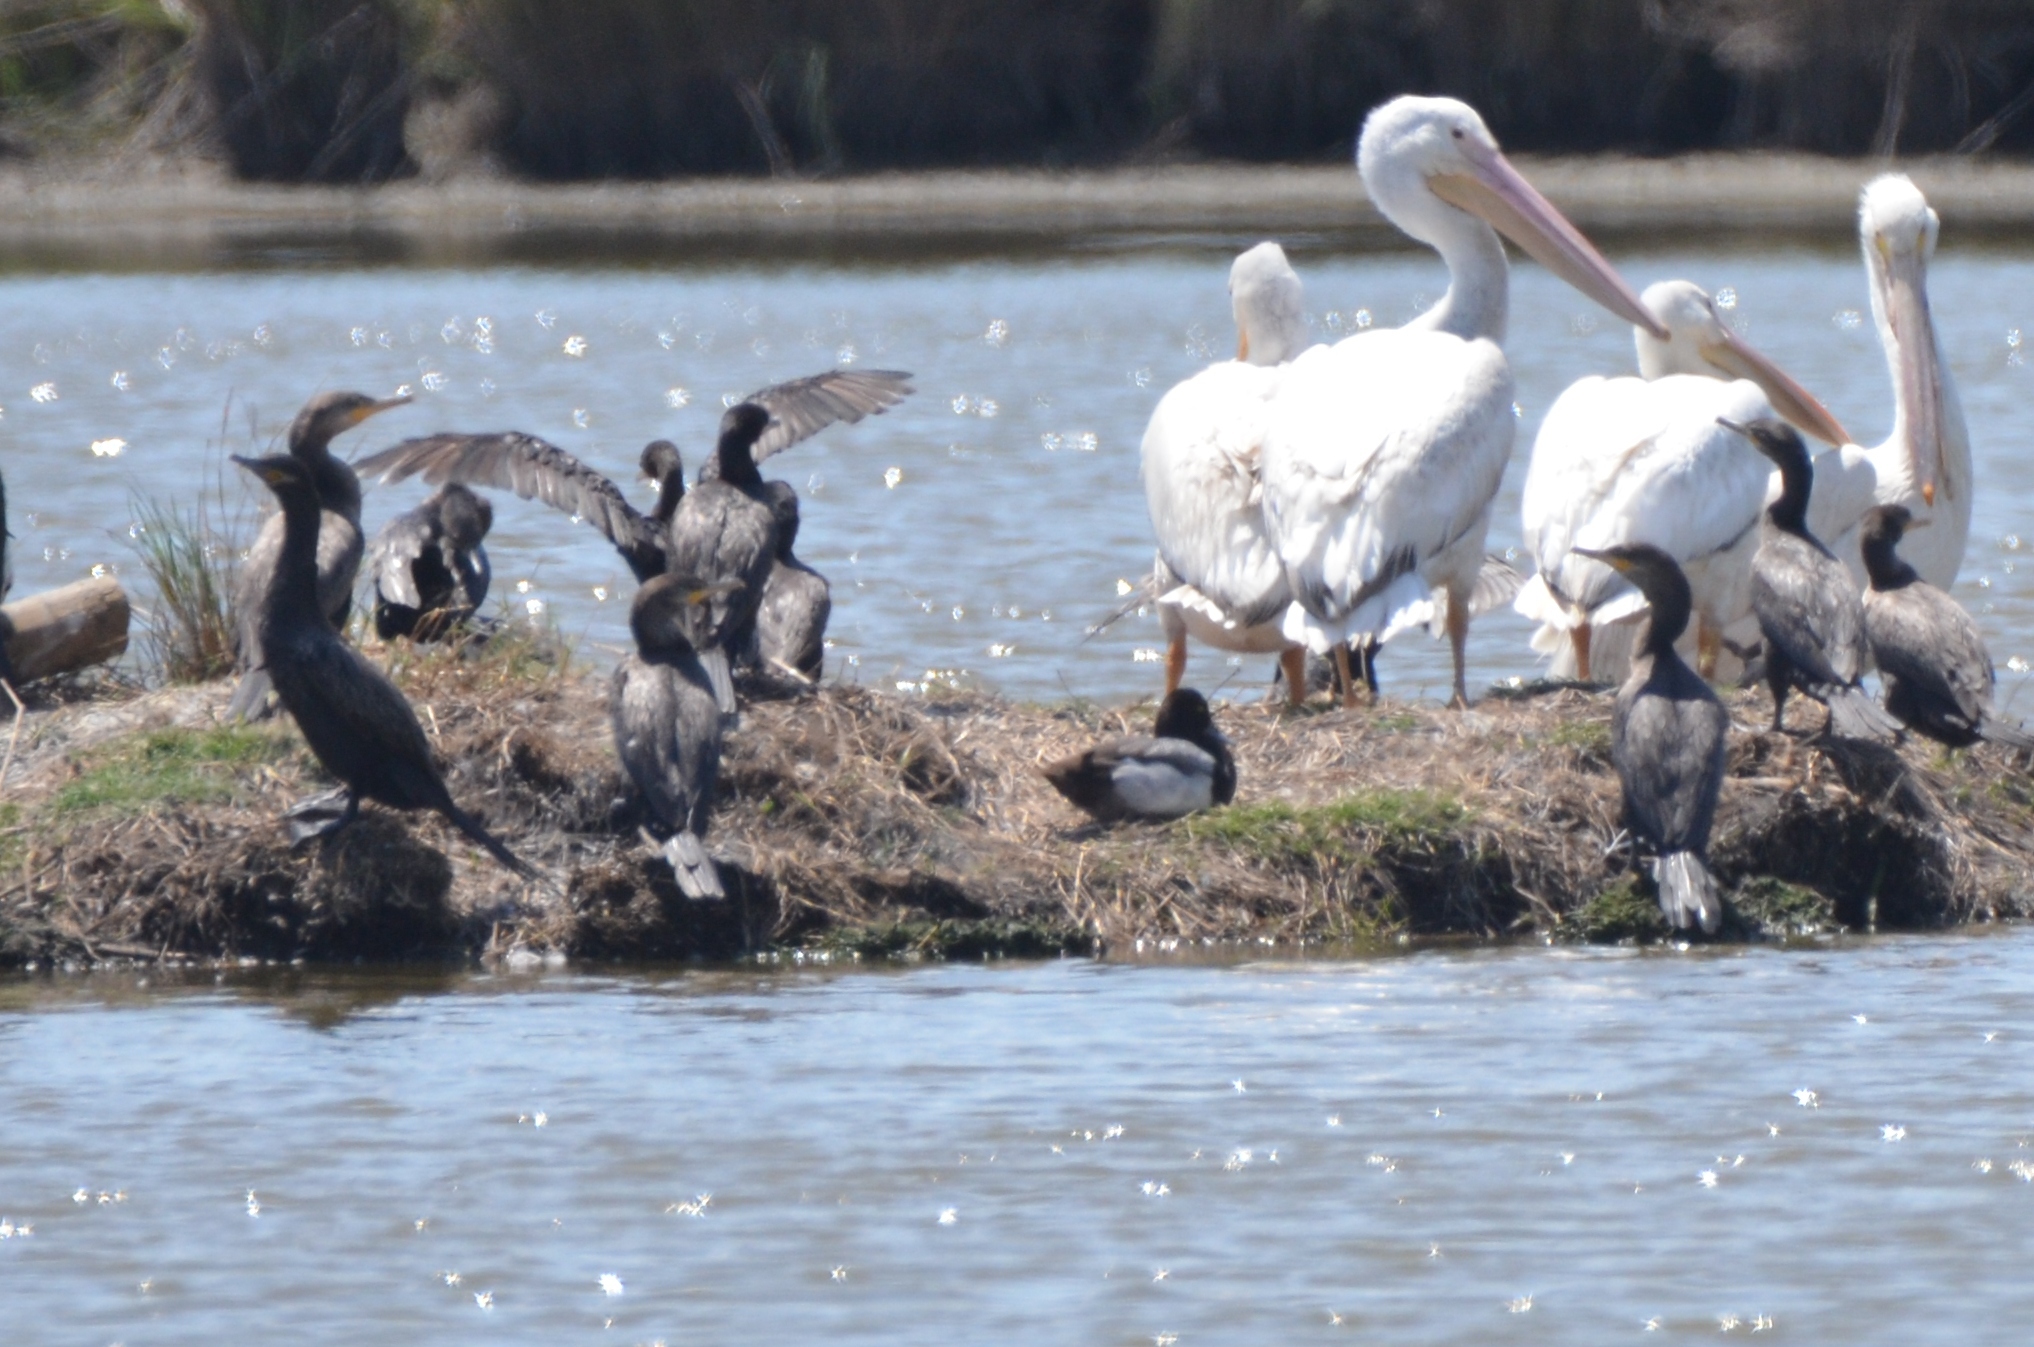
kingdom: Animalia
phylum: Chordata
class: Aves
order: Anseriformes
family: Anatidae
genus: Aythya
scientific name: Aythya affinis
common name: Lesser scaup
